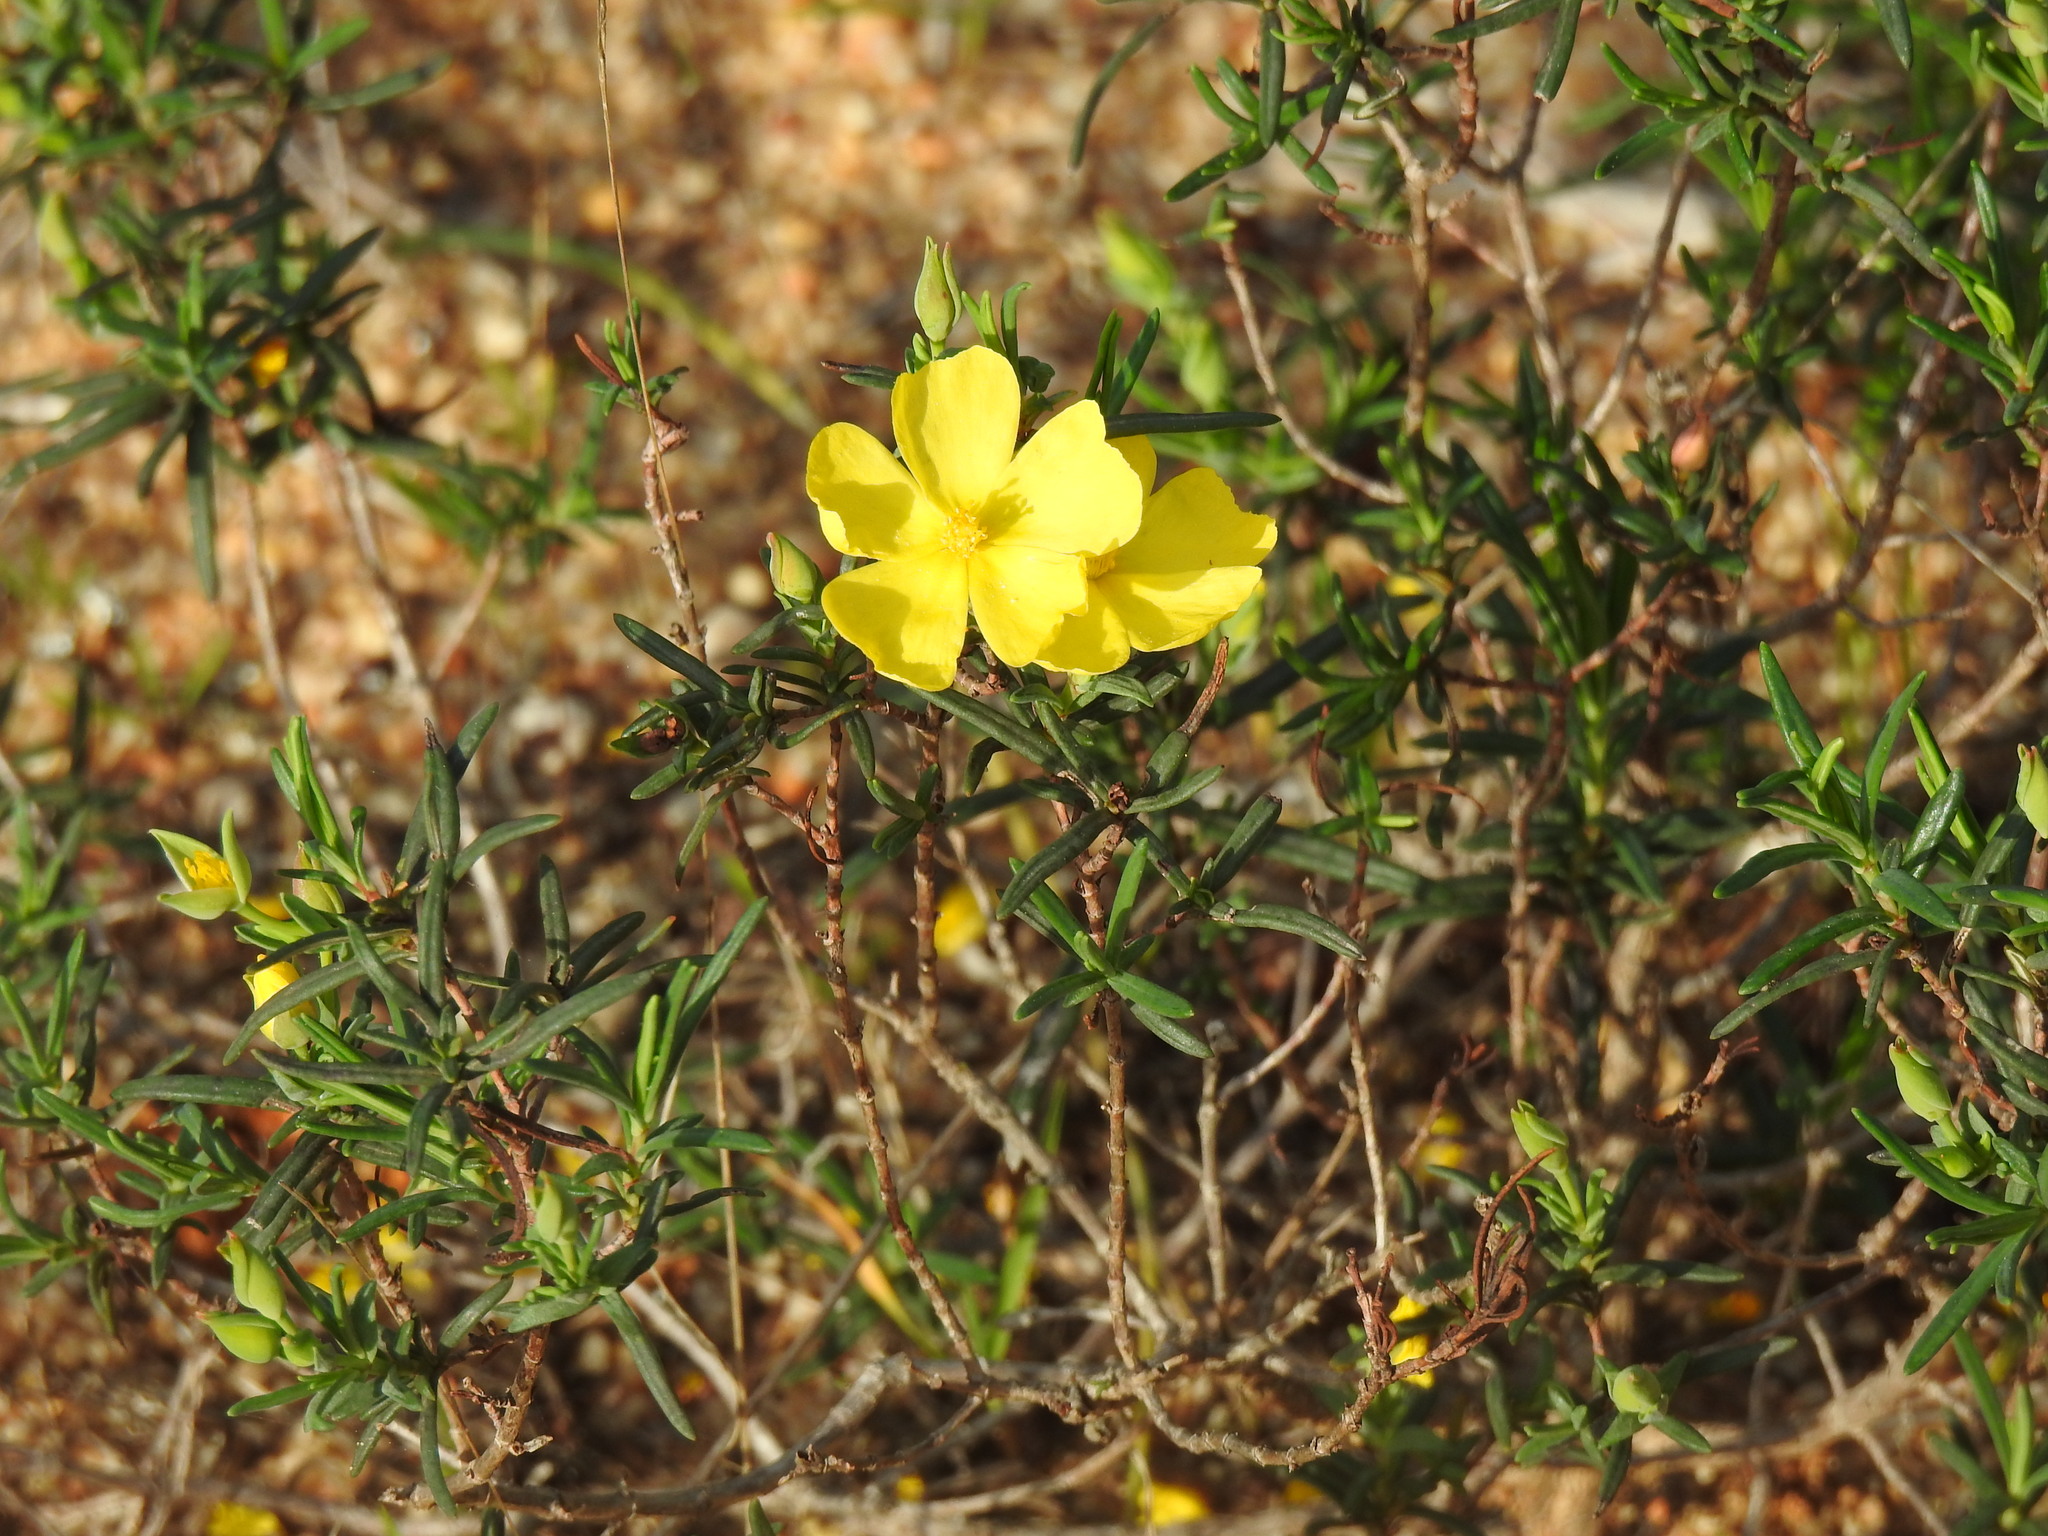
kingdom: Plantae
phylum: Tracheophyta
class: Magnoliopsida
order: Malvales
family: Cistaceae
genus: Halimium
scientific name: Halimium calycinum
